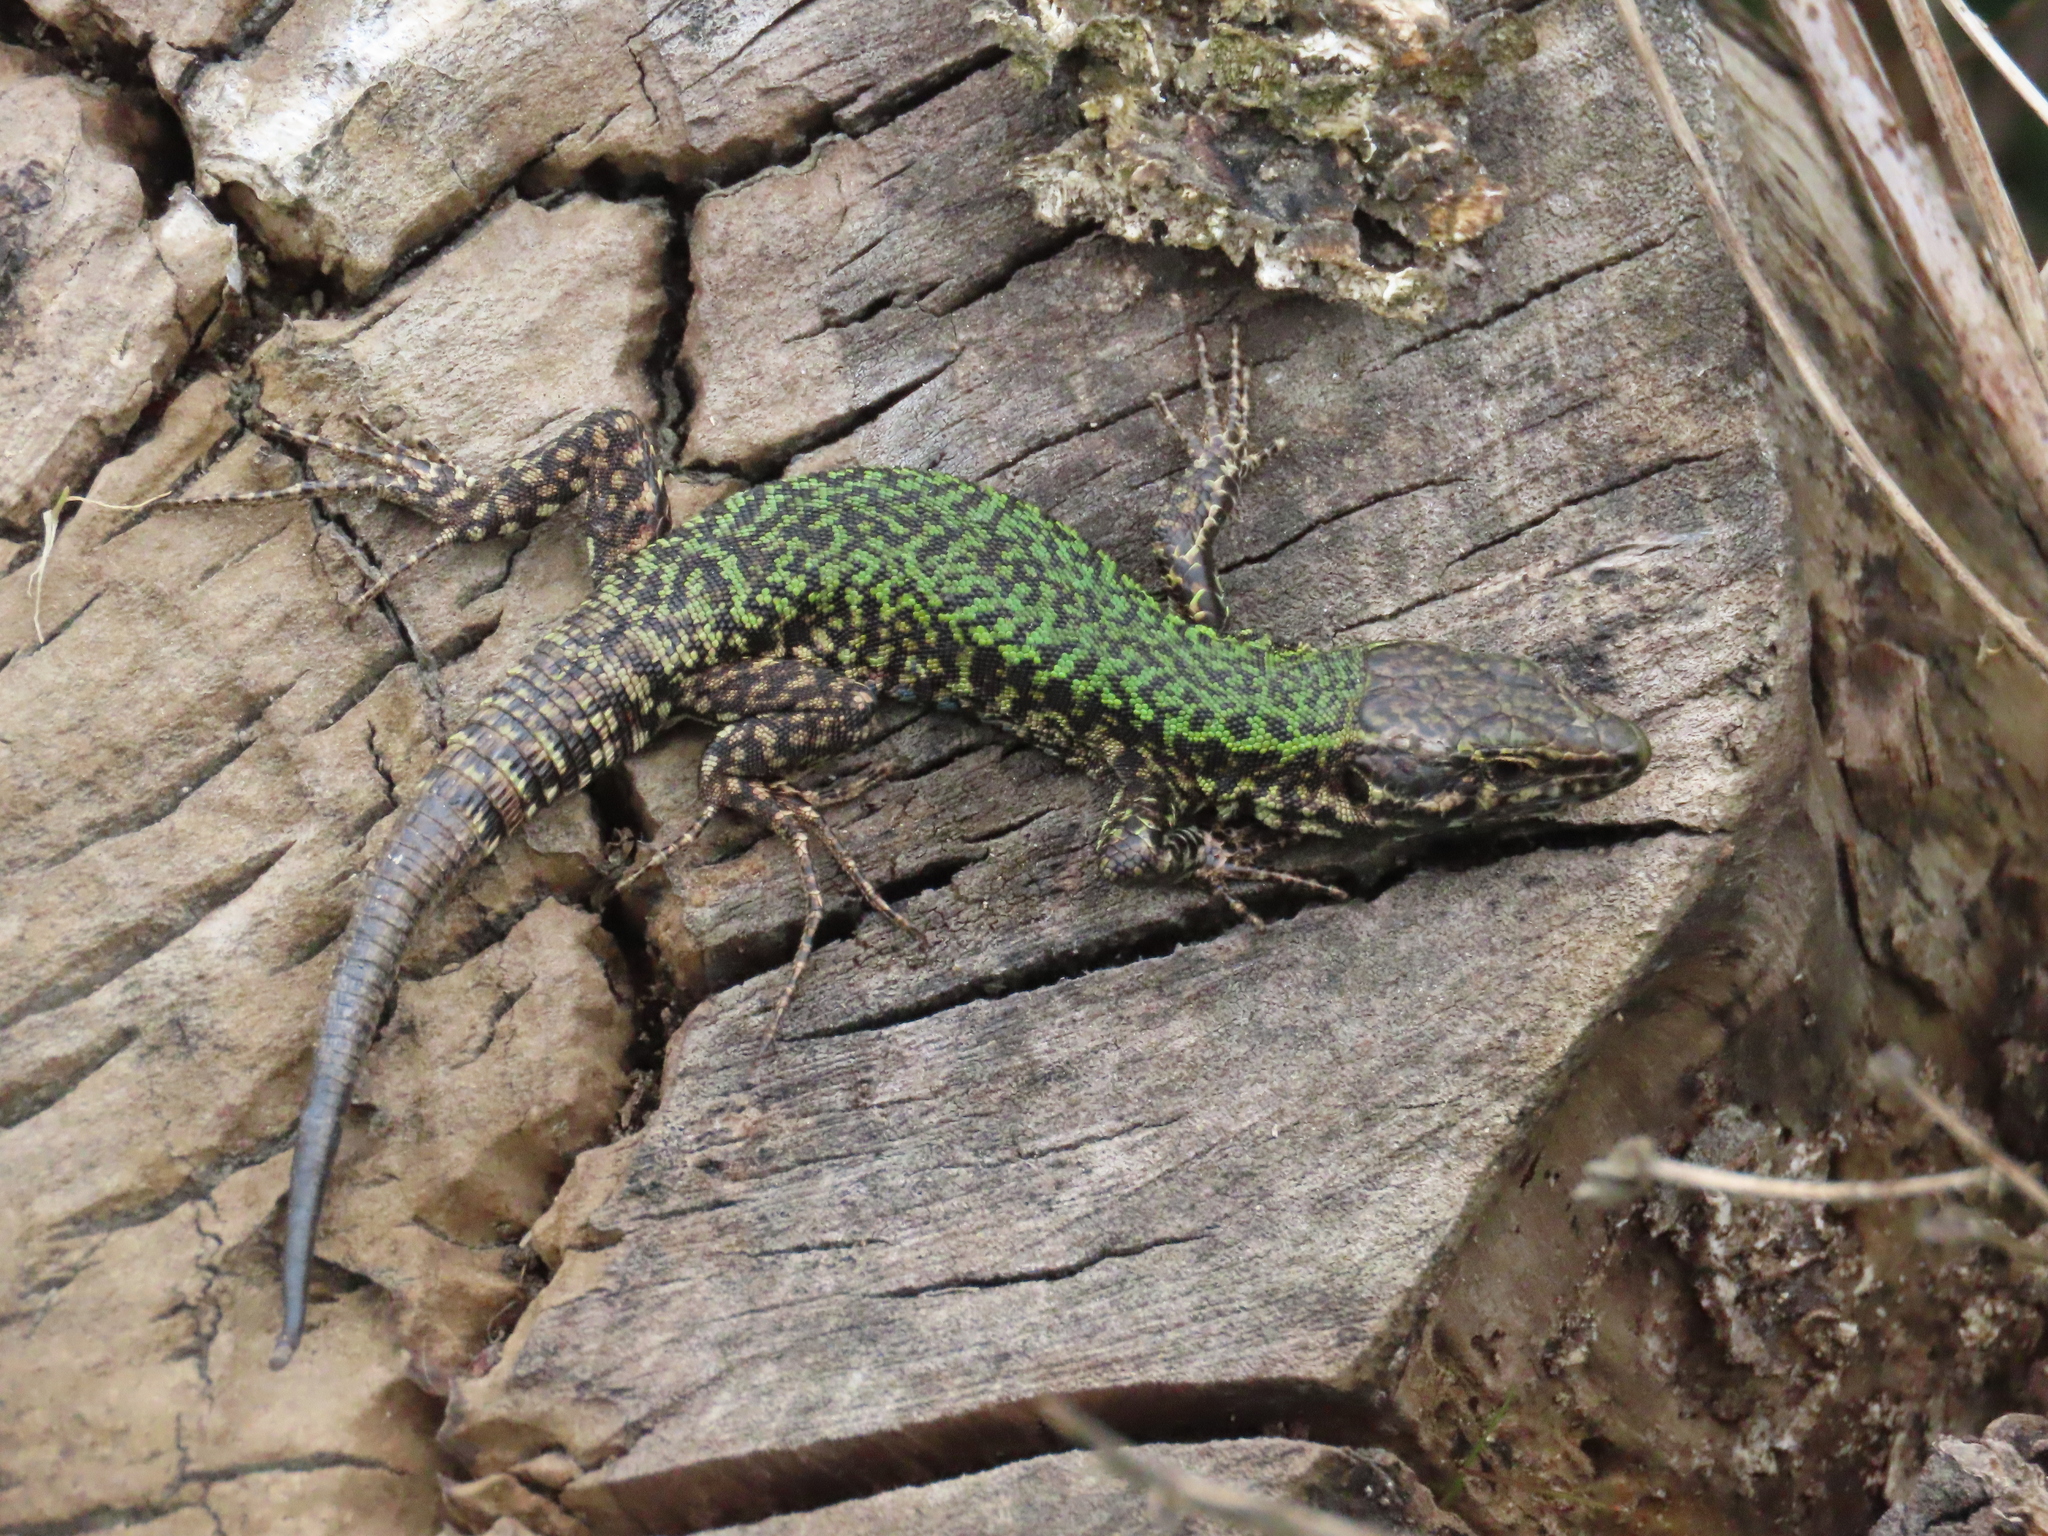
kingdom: Animalia
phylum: Chordata
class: Squamata
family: Lacertidae
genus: Podarcis
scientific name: Podarcis muralis
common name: Common wall lizard
